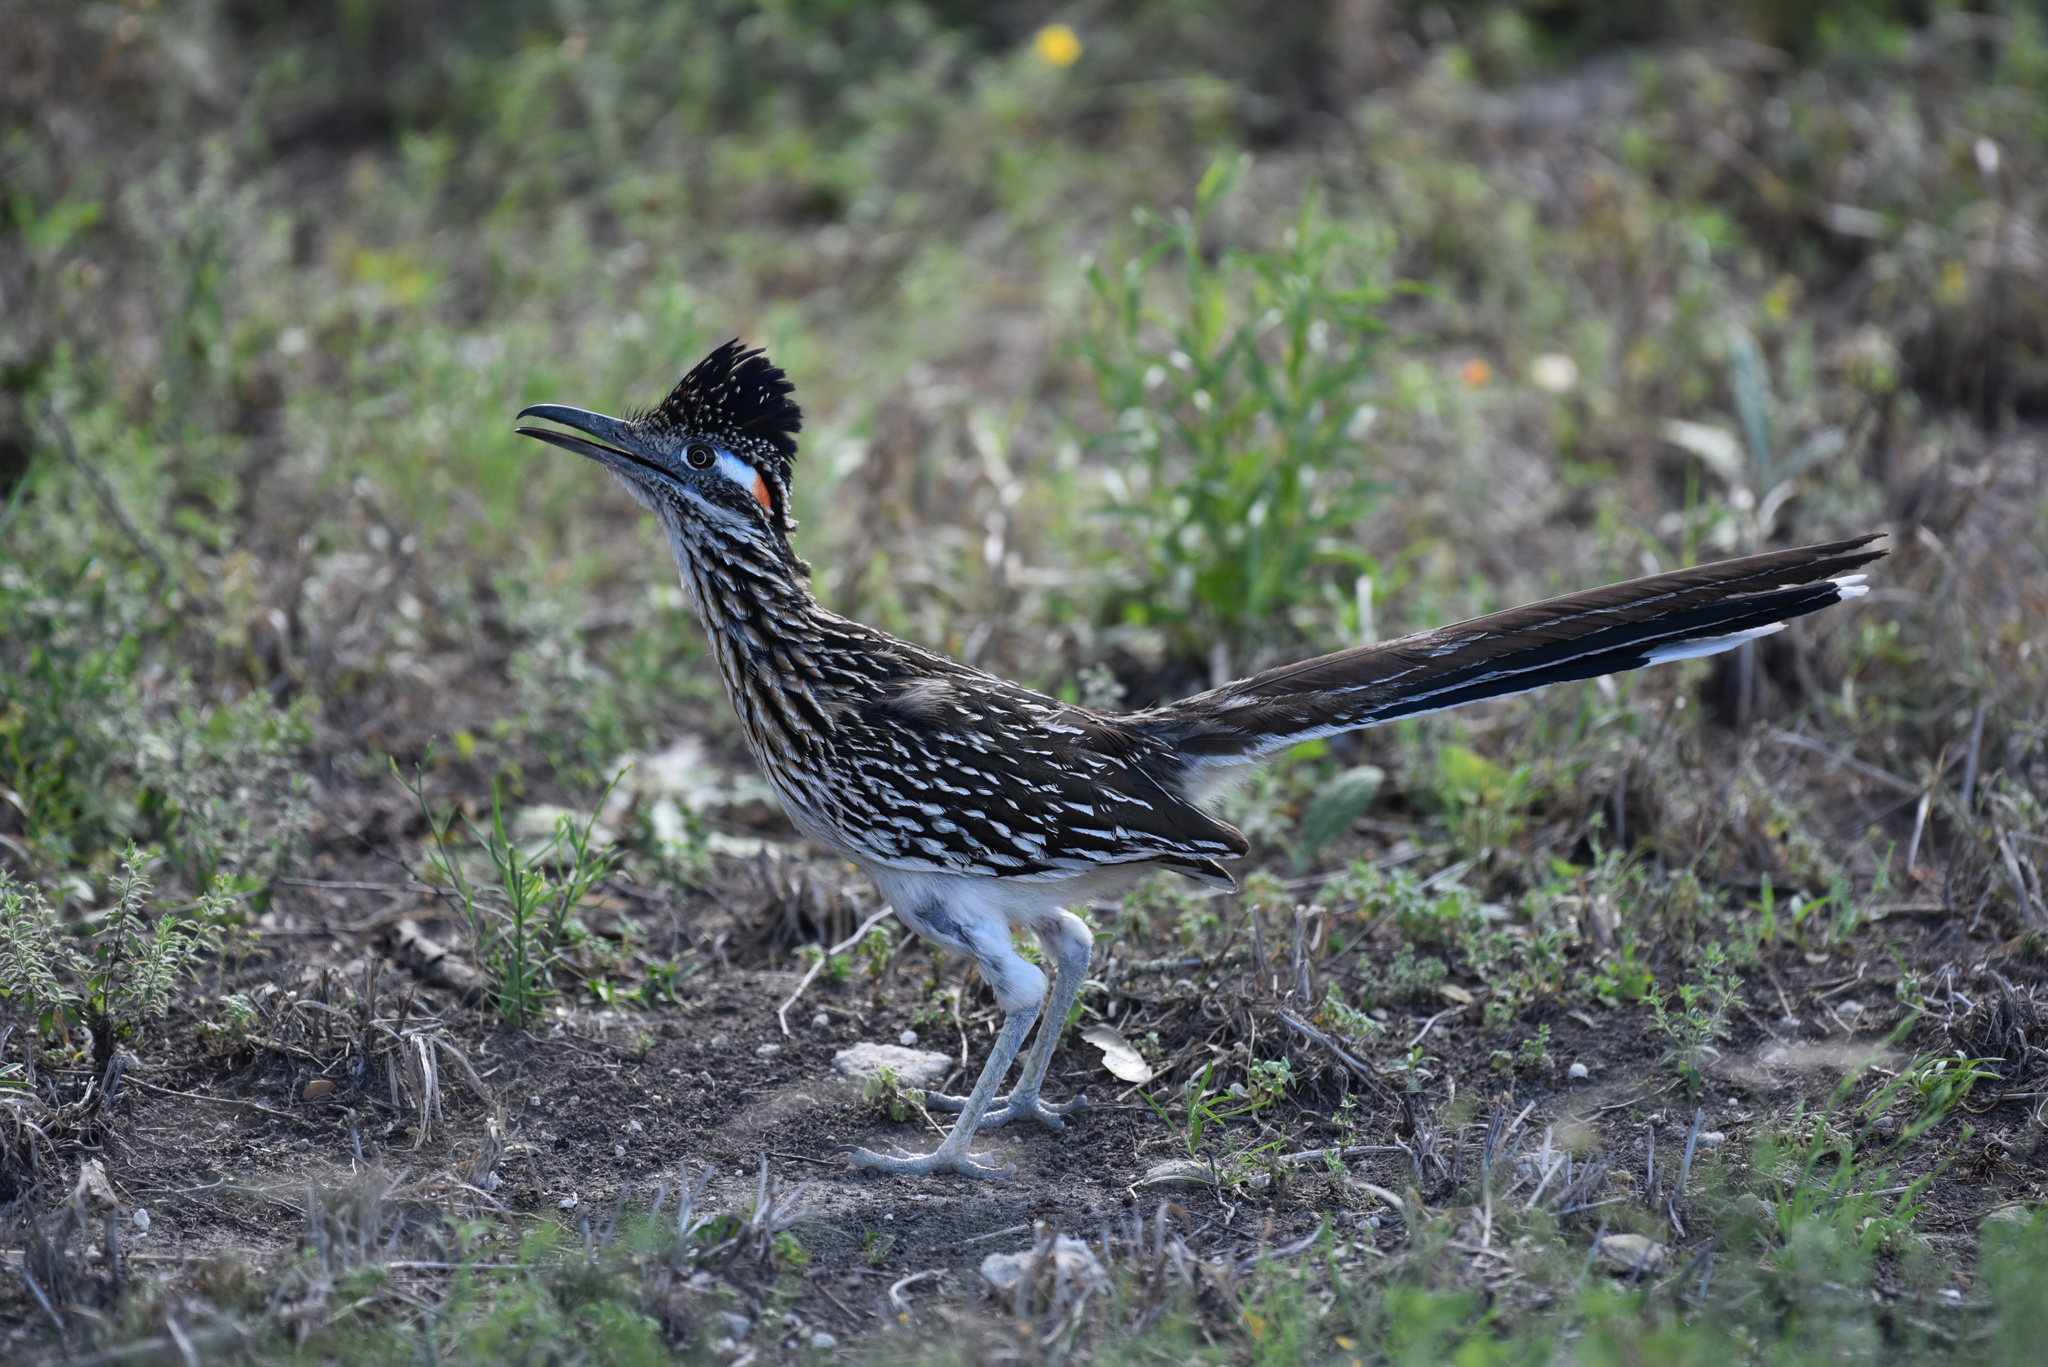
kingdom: Animalia
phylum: Chordata
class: Aves
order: Cuculiformes
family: Cuculidae
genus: Geococcyx
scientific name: Geococcyx californianus
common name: Greater roadrunner
